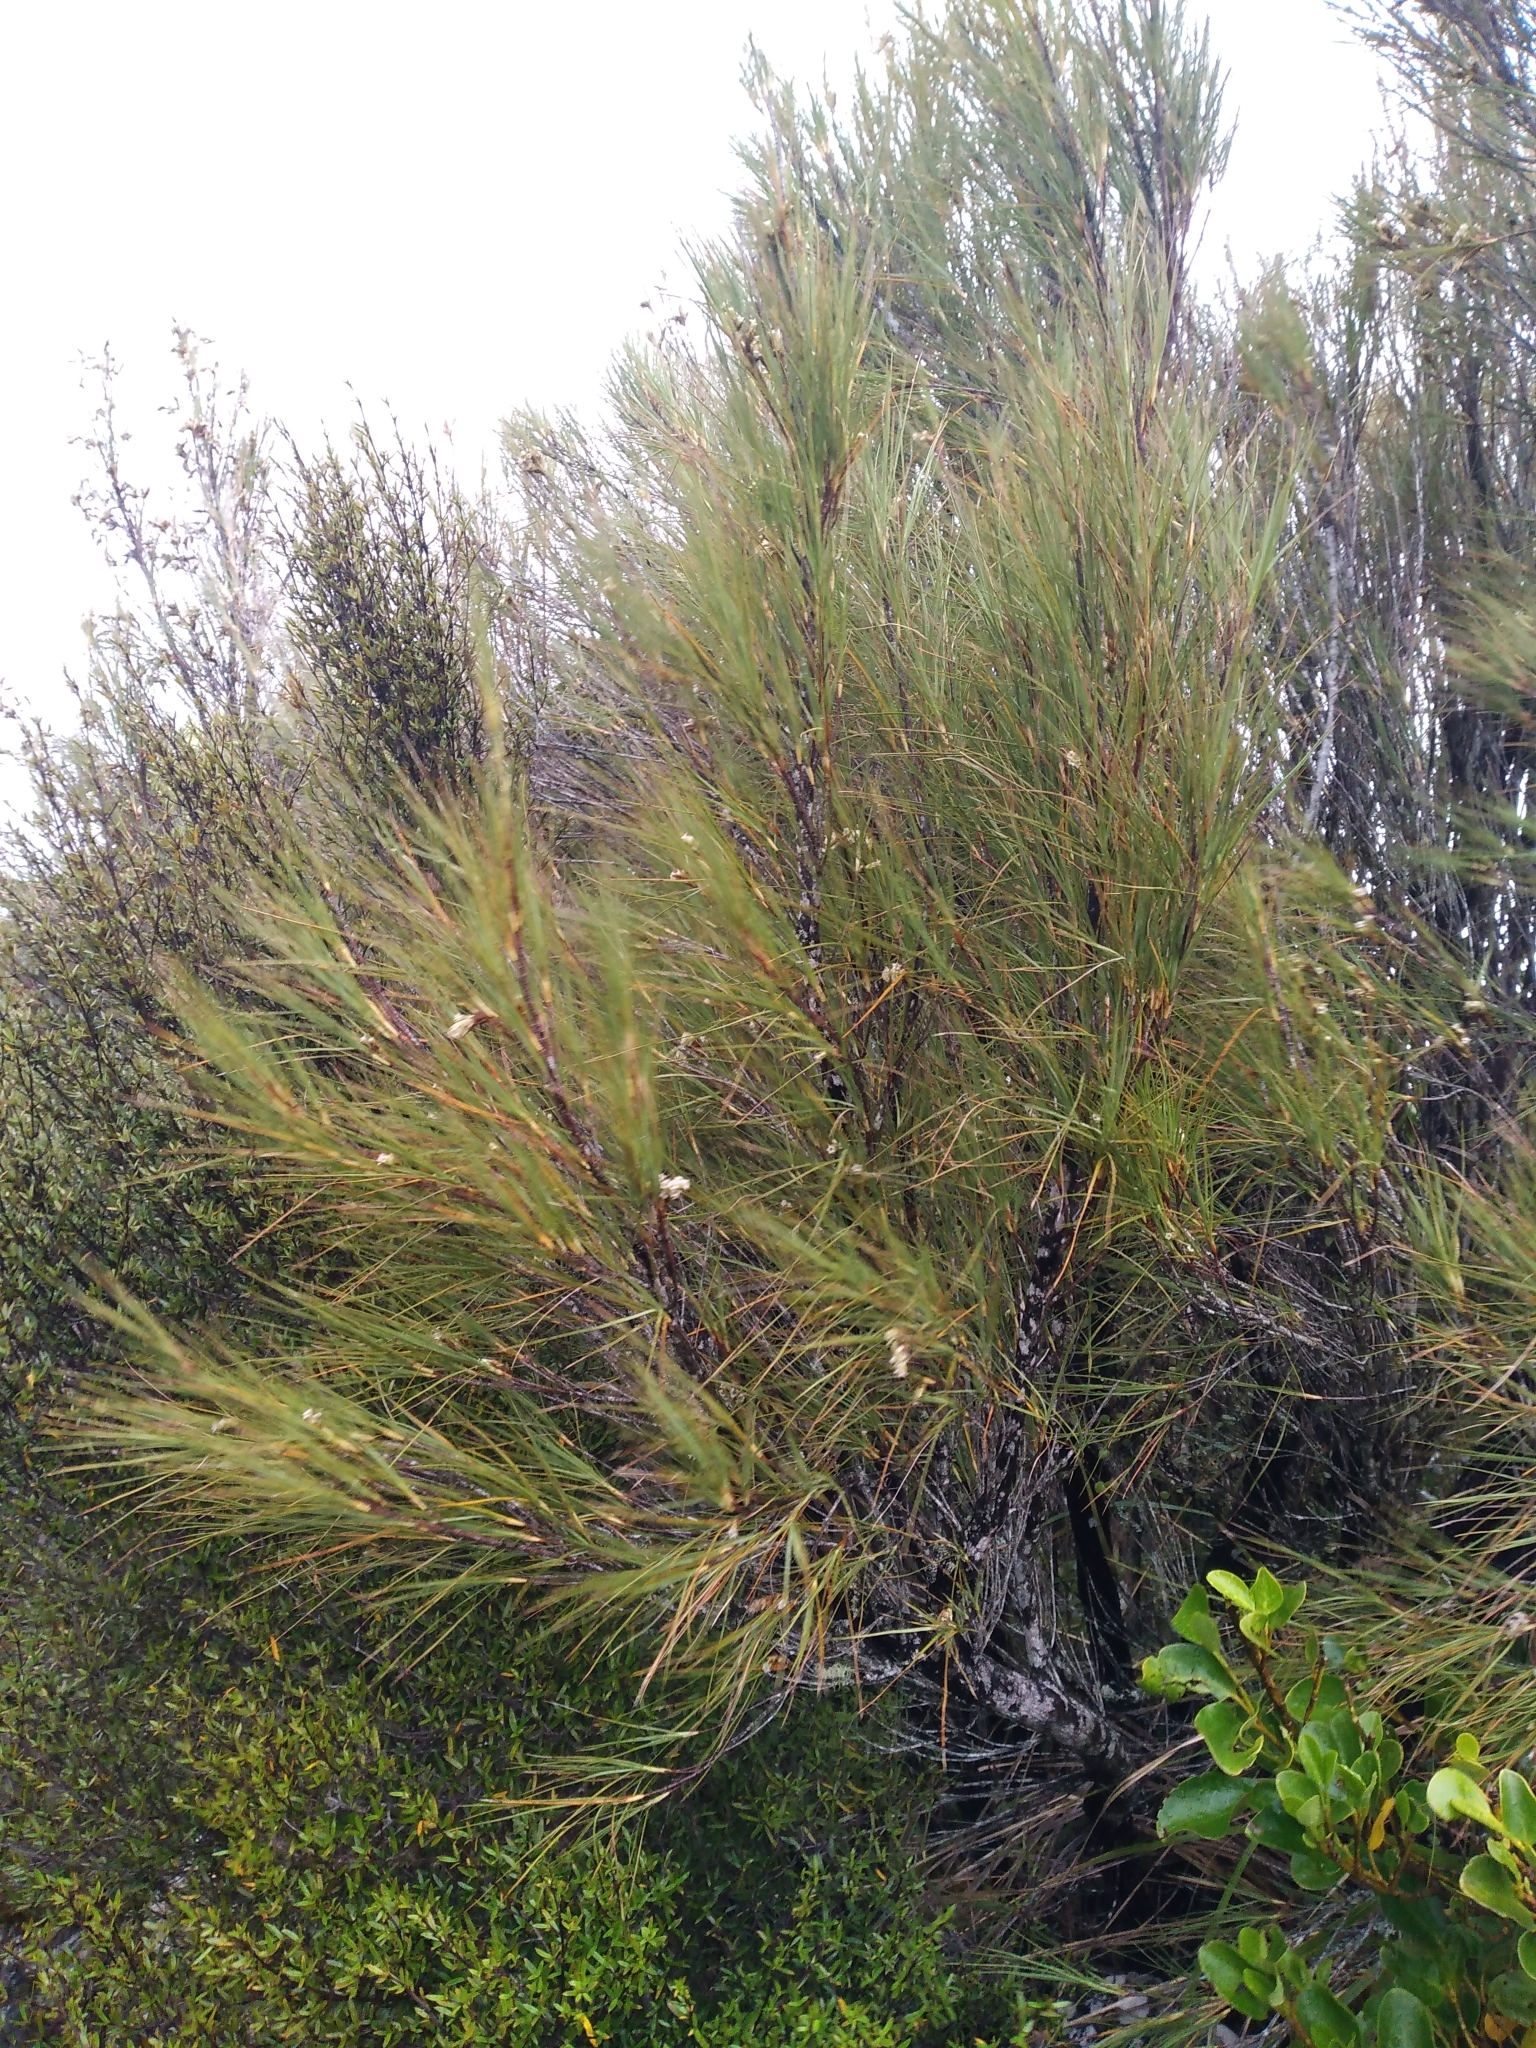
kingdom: Plantae
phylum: Tracheophyta
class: Magnoliopsida
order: Ericales
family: Ericaceae
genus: Dracophyllum
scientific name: Dracophyllum longifolium
